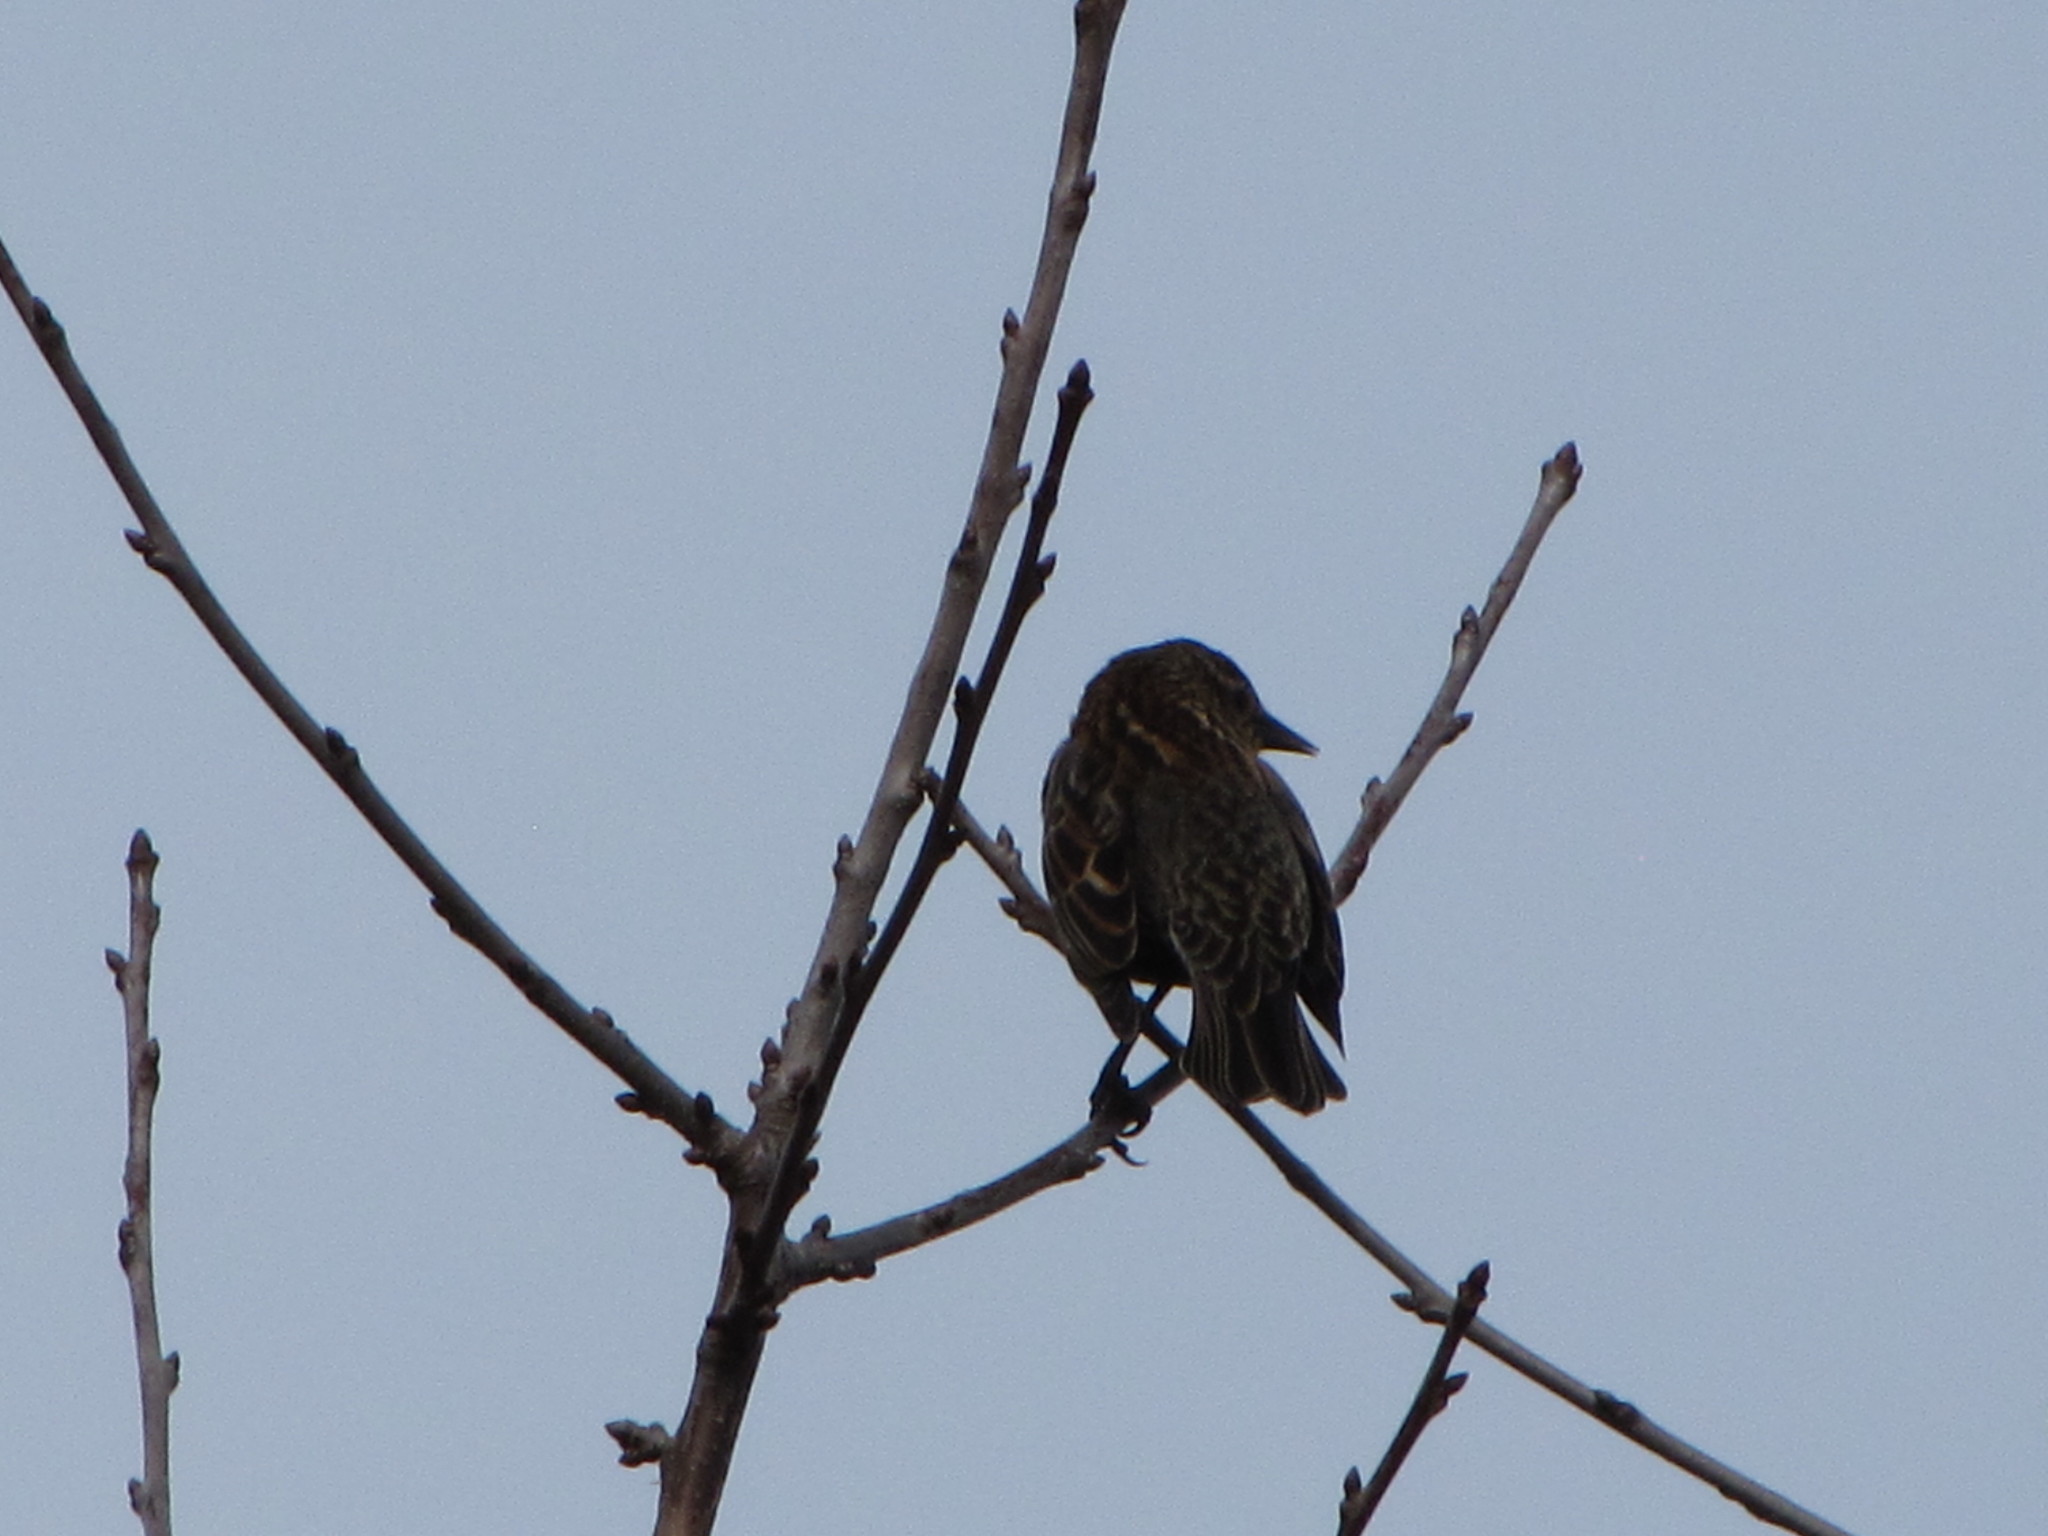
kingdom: Animalia
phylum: Chordata
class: Aves
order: Passeriformes
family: Icteridae
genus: Agelaius
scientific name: Agelaius phoeniceus
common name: Red-winged blackbird
